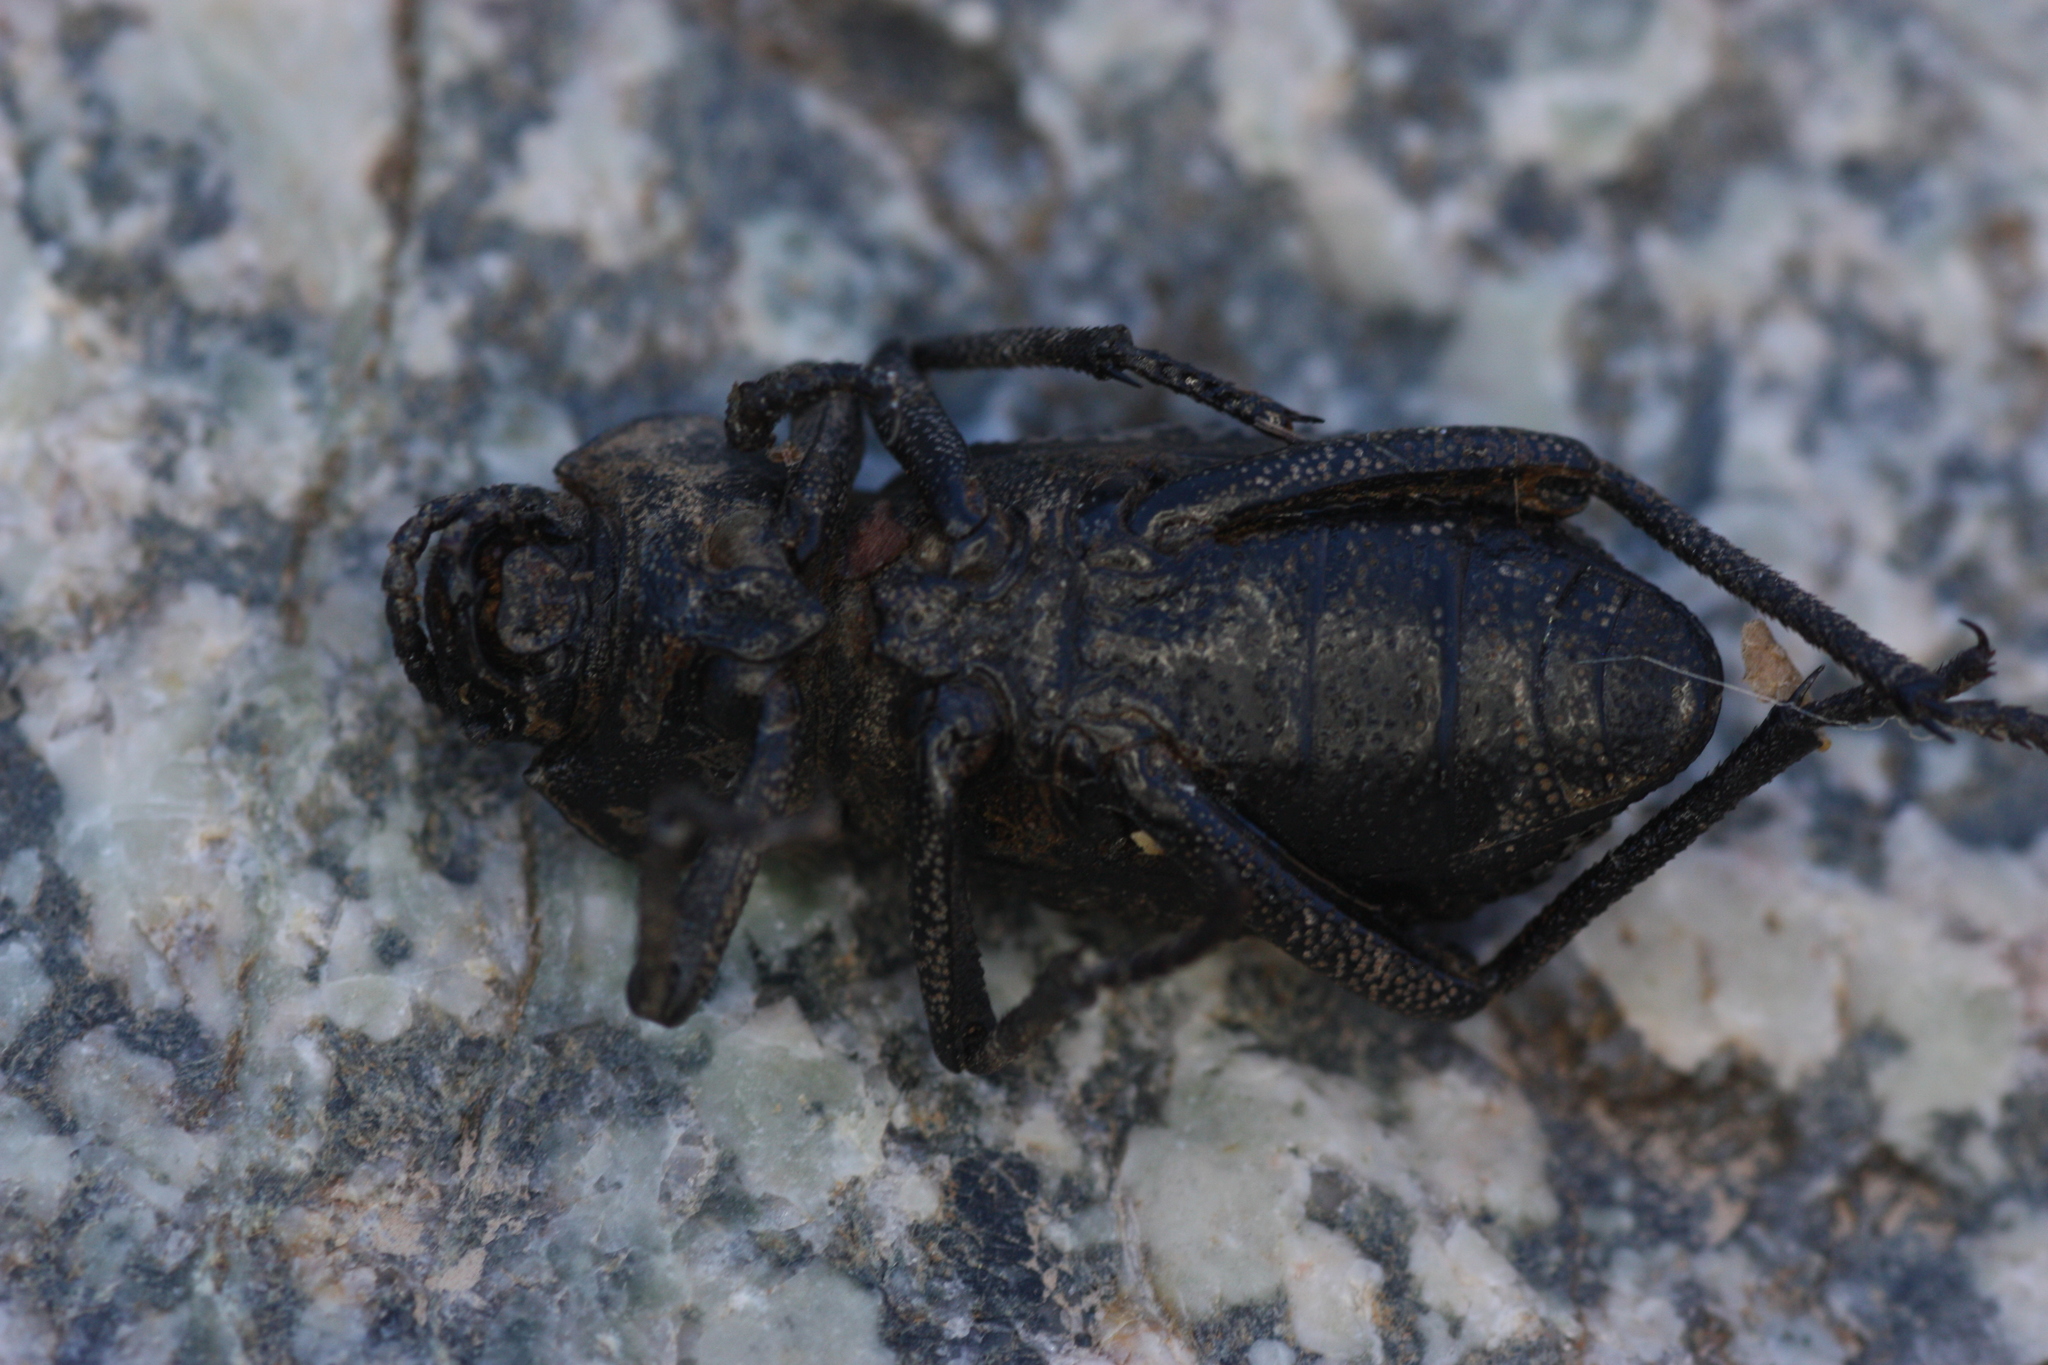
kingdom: Animalia
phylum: Arthropoda
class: Insecta
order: Coleoptera
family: Tenebrionidae
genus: Cryptoglossa
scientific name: Cryptoglossa variolosa
